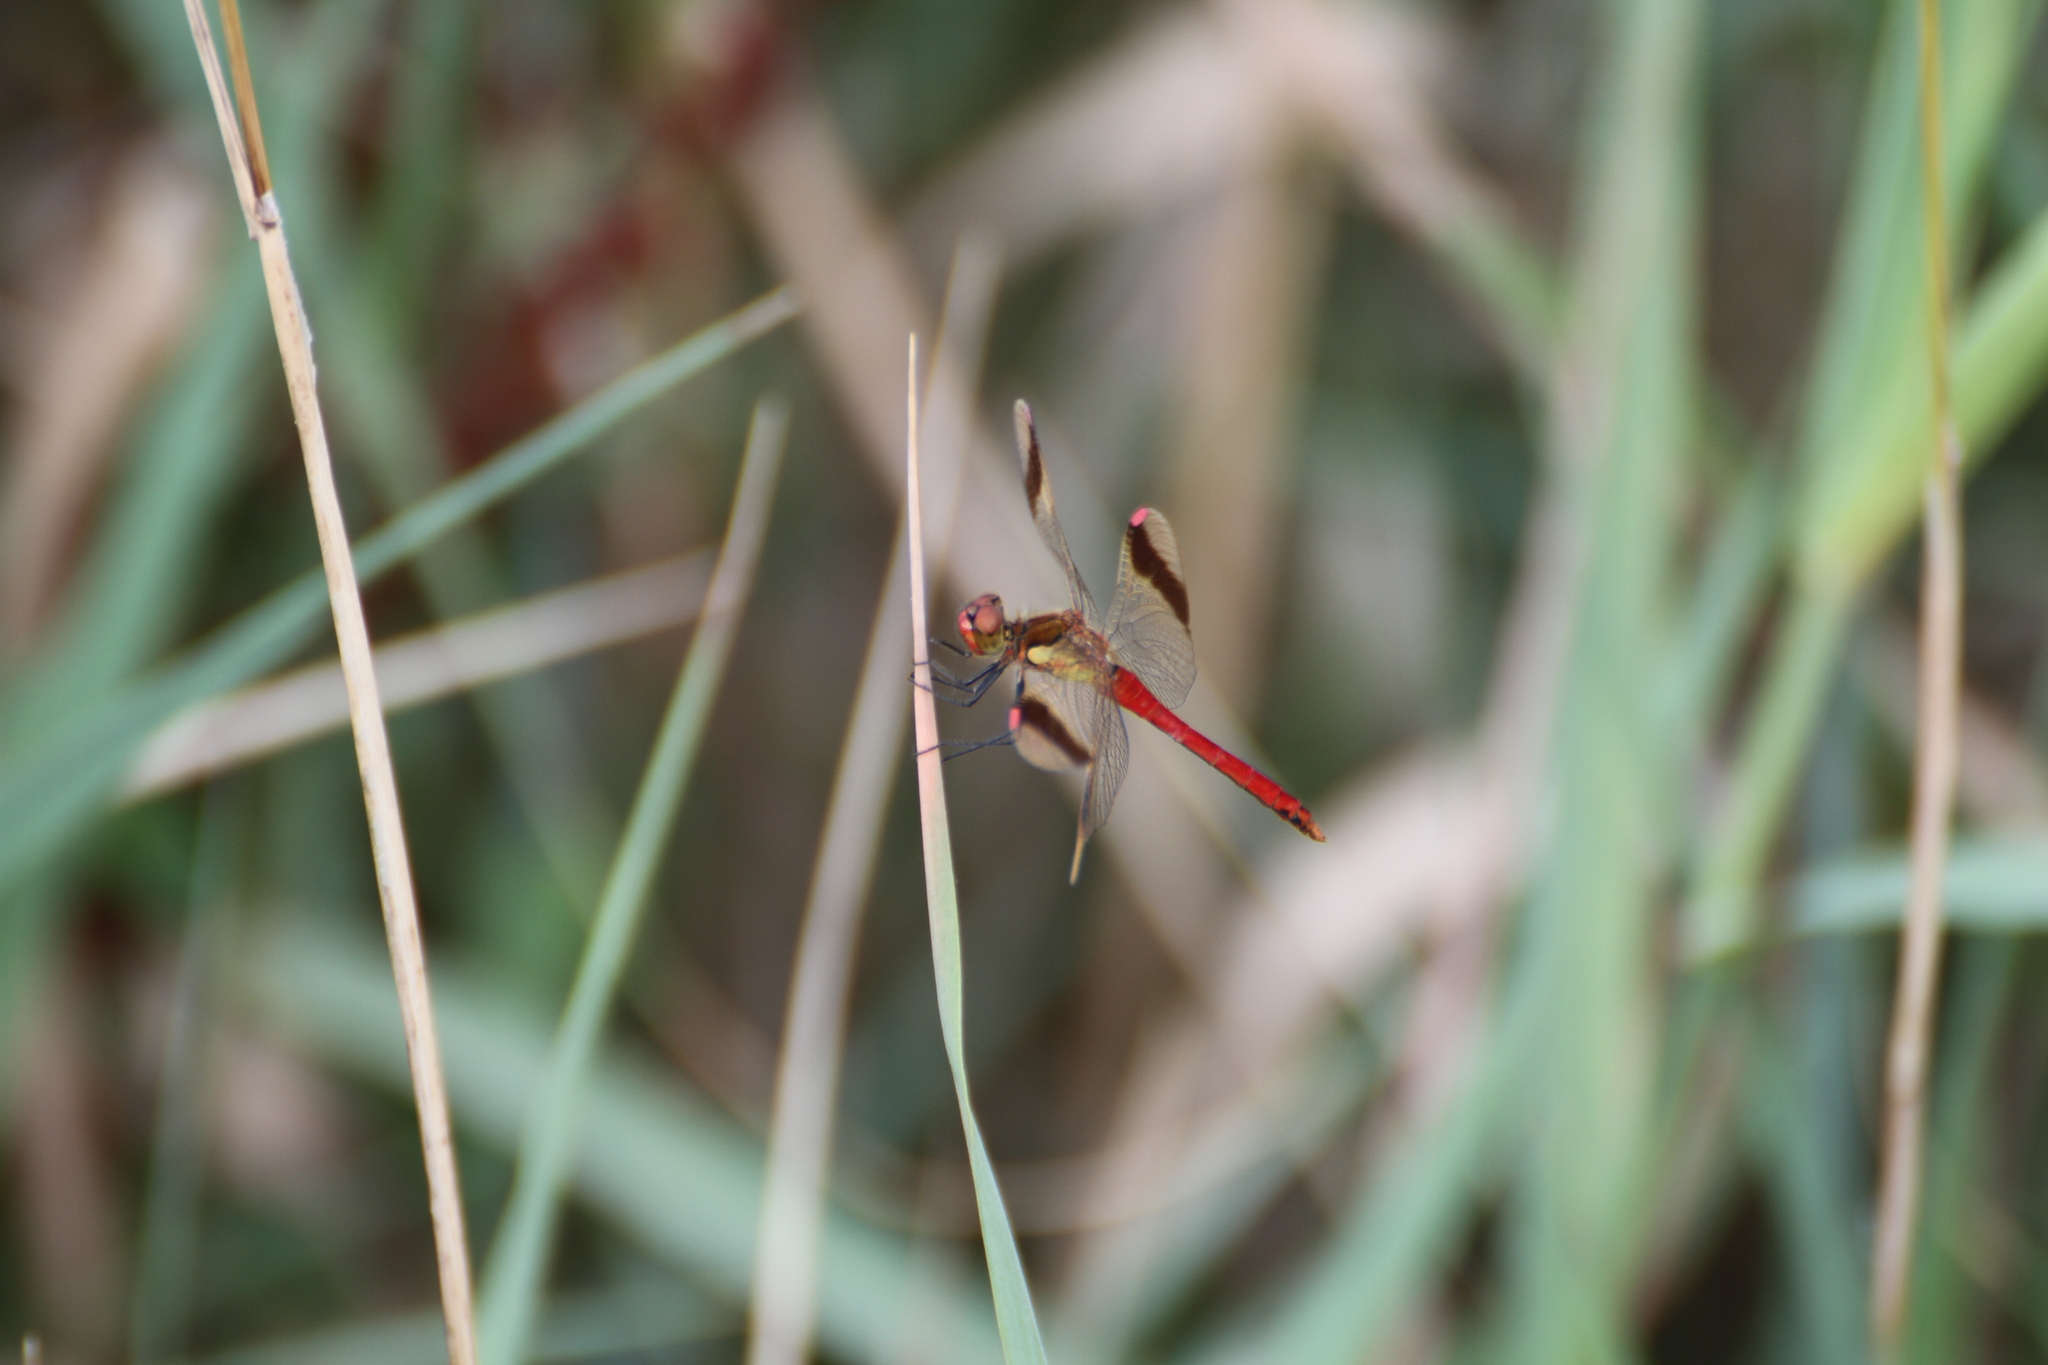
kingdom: Animalia
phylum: Arthropoda
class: Insecta
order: Odonata
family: Libellulidae
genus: Sympetrum
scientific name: Sympetrum pedemontanum
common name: Banded darter
